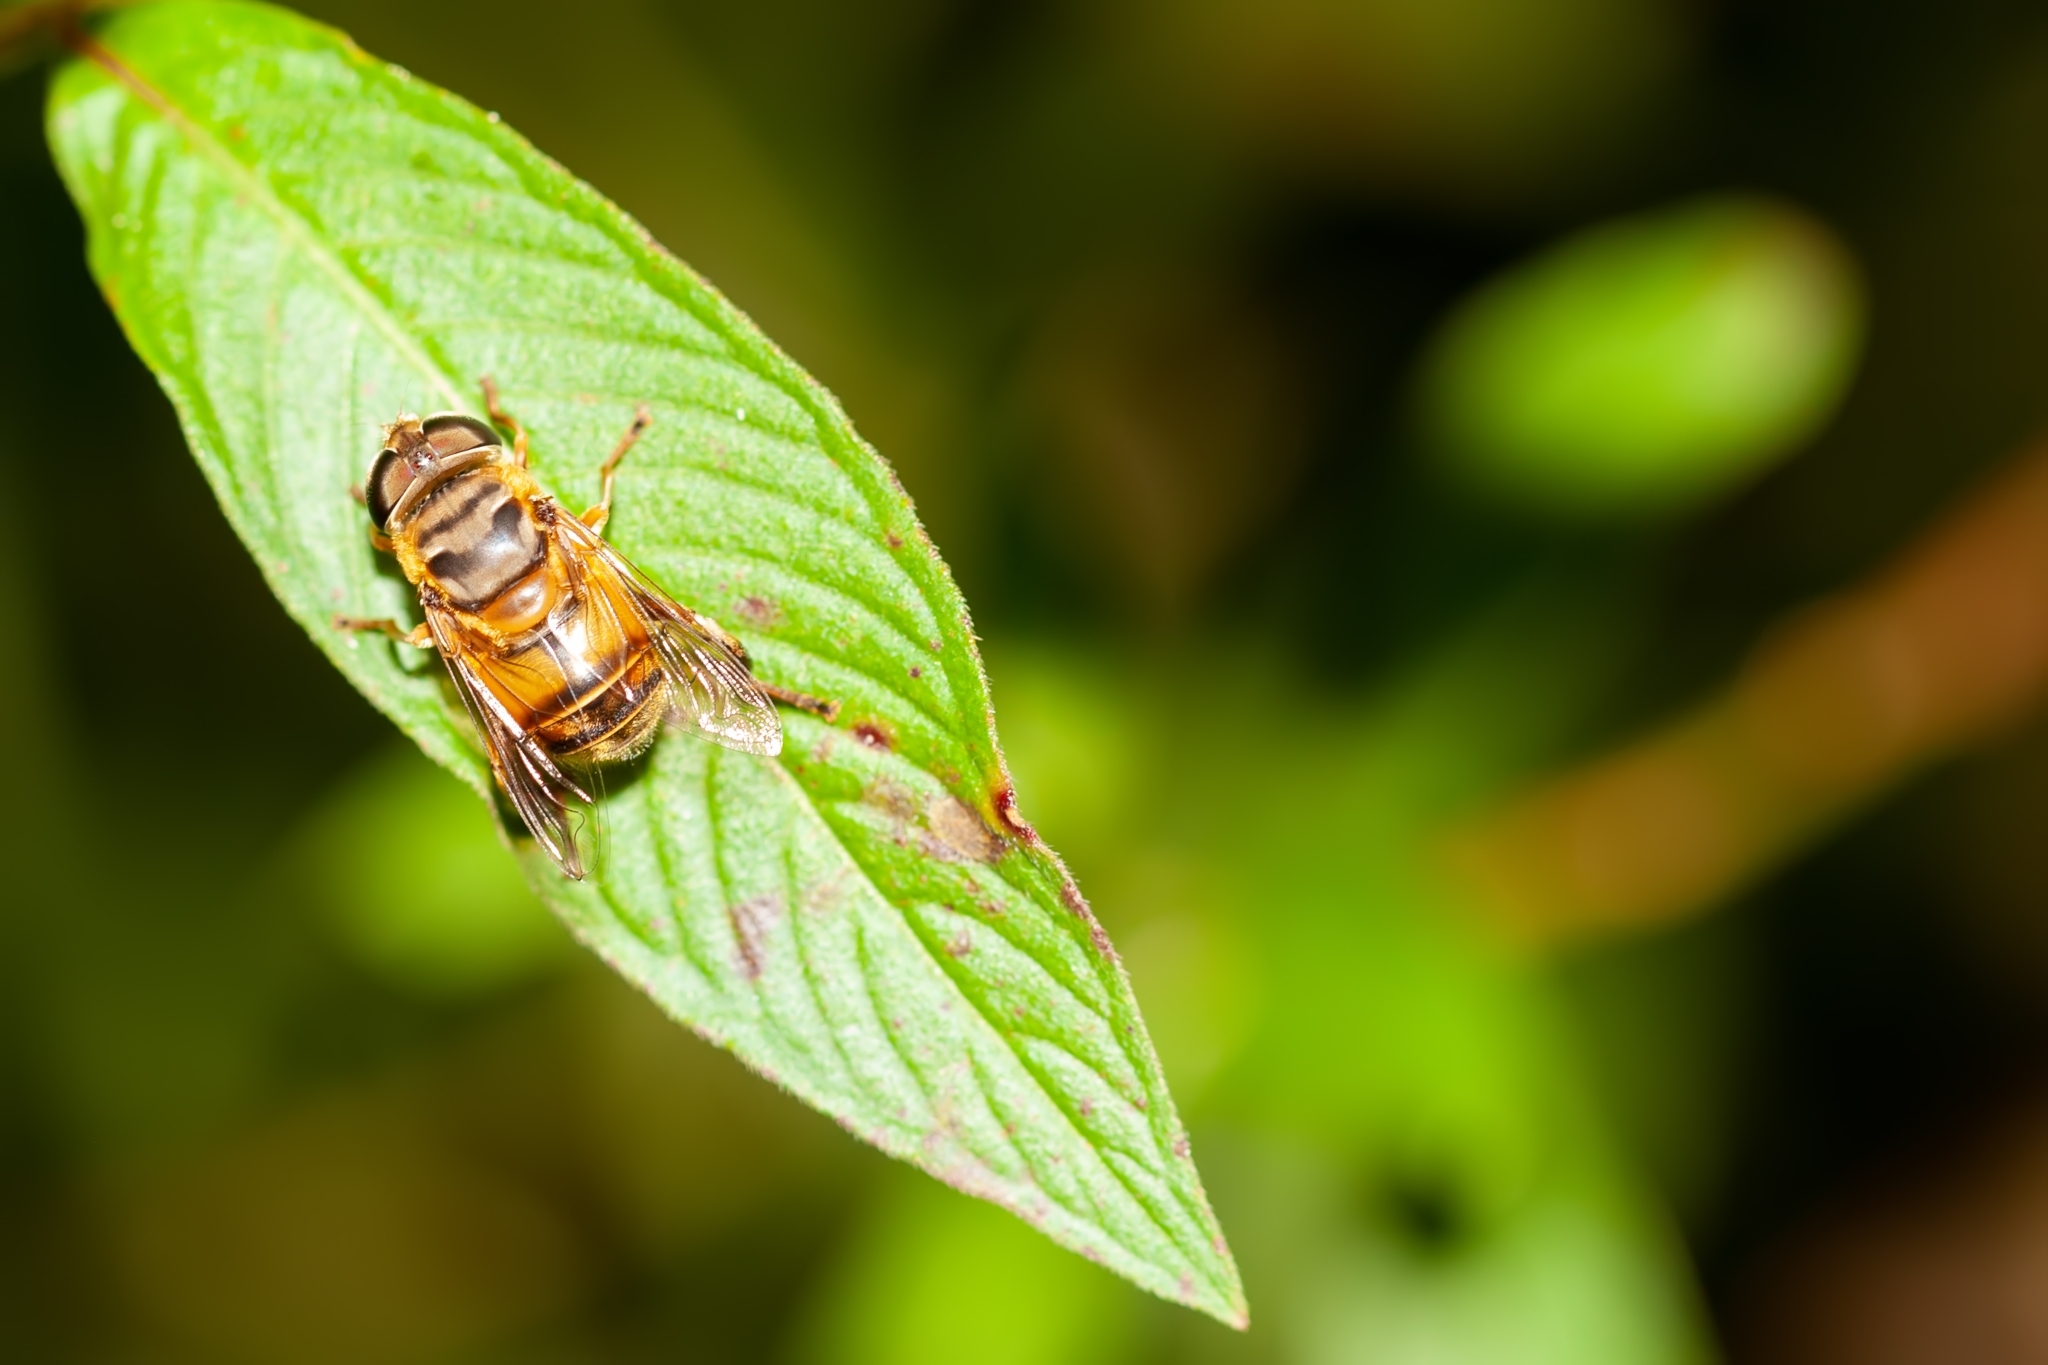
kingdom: Animalia
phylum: Arthropoda
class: Insecta
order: Diptera
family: Syrphidae
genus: Palpada
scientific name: Palpada vinetorum
